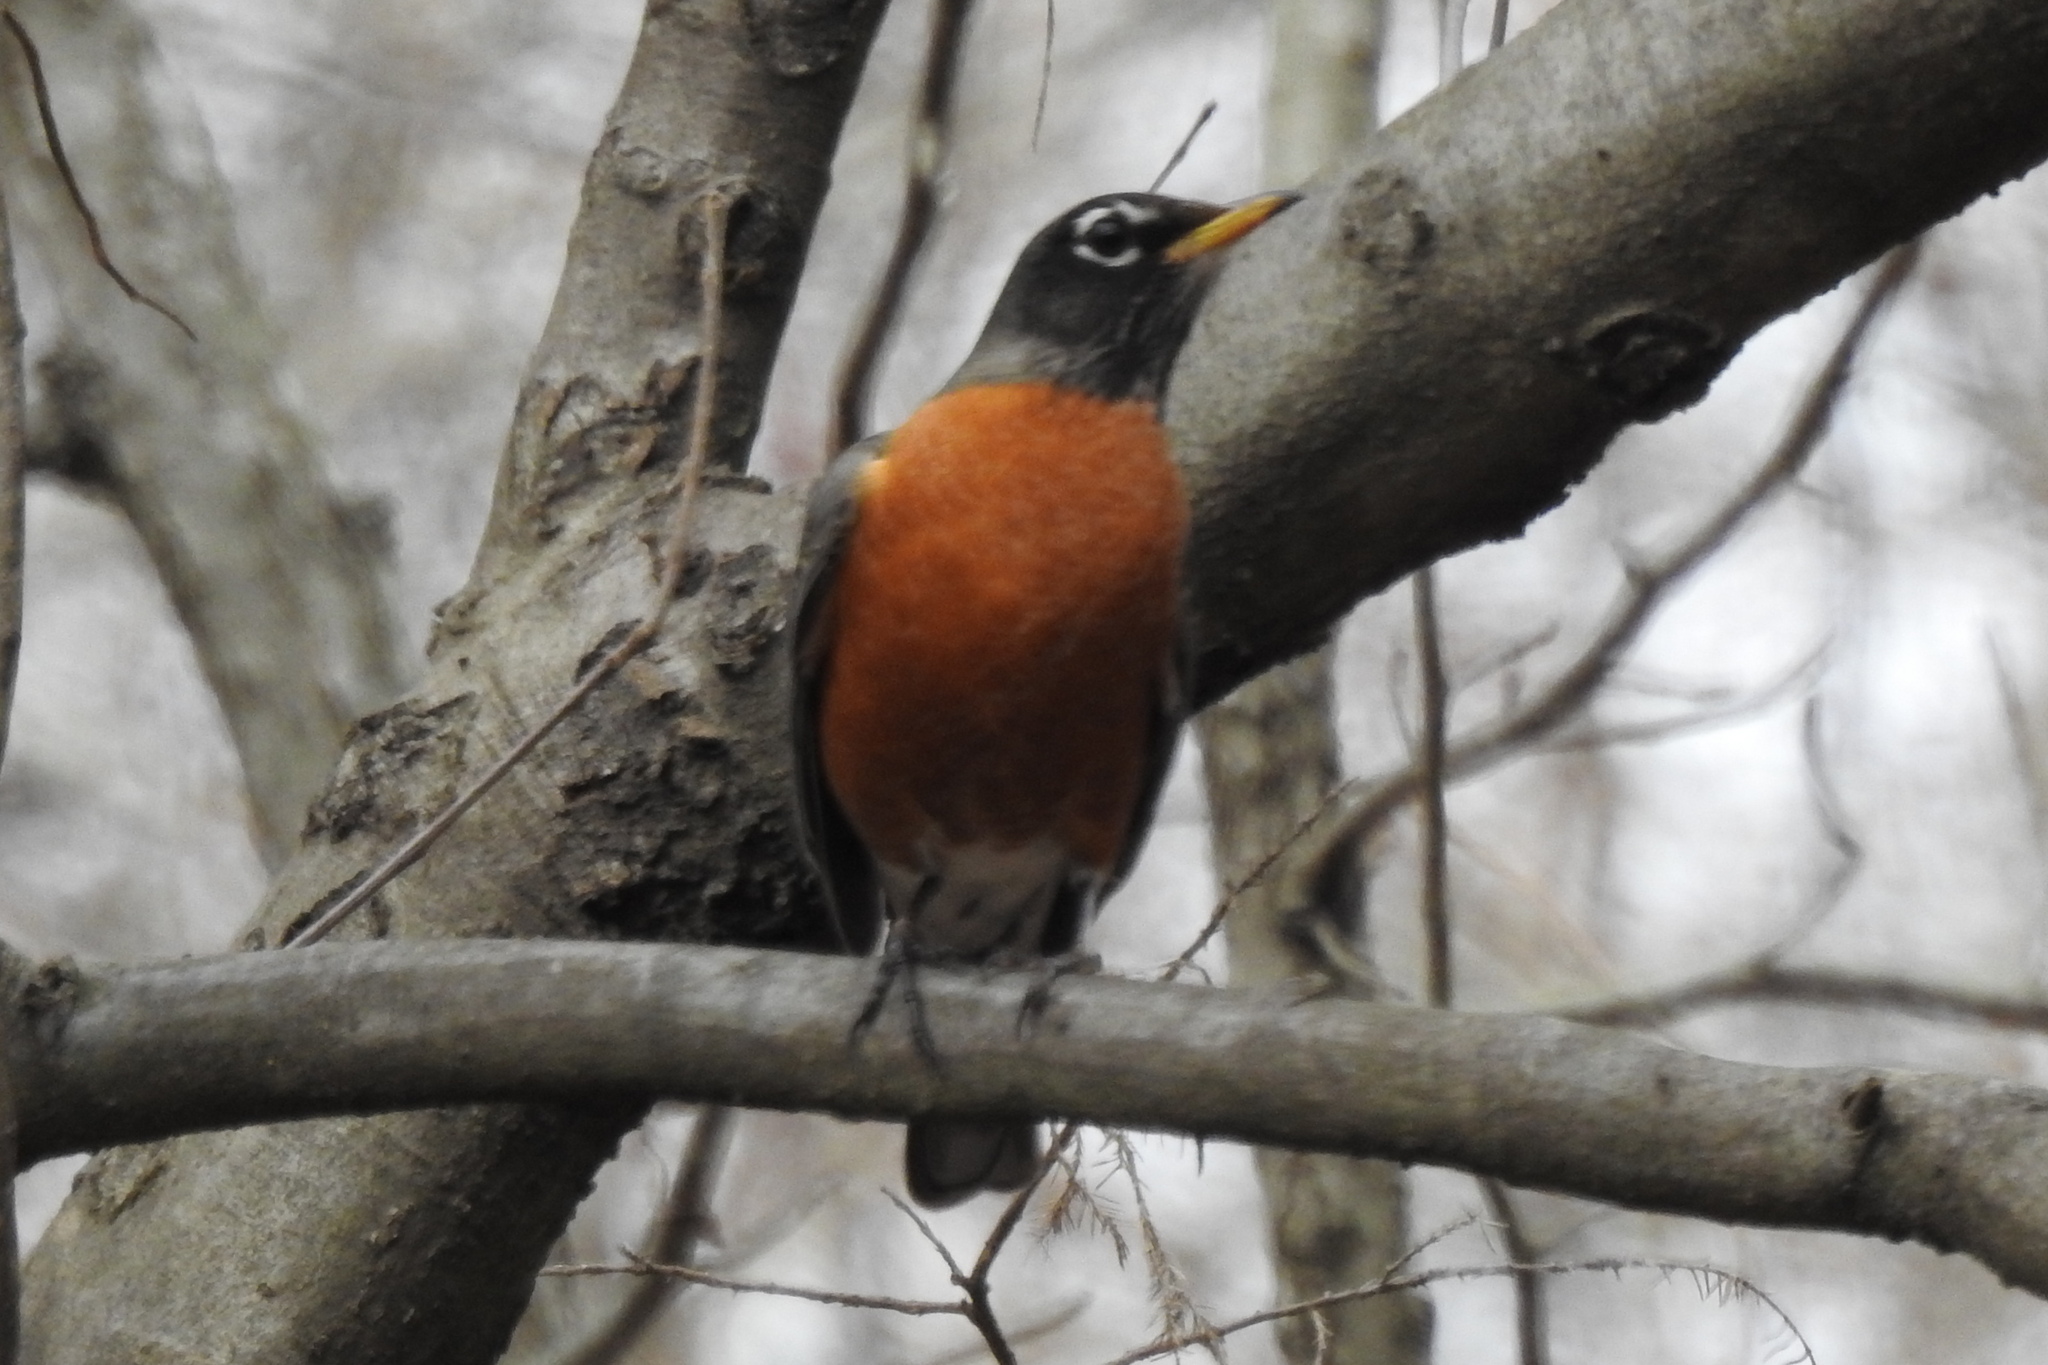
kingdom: Animalia
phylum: Chordata
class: Aves
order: Passeriformes
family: Turdidae
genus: Turdus
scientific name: Turdus migratorius
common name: American robin
